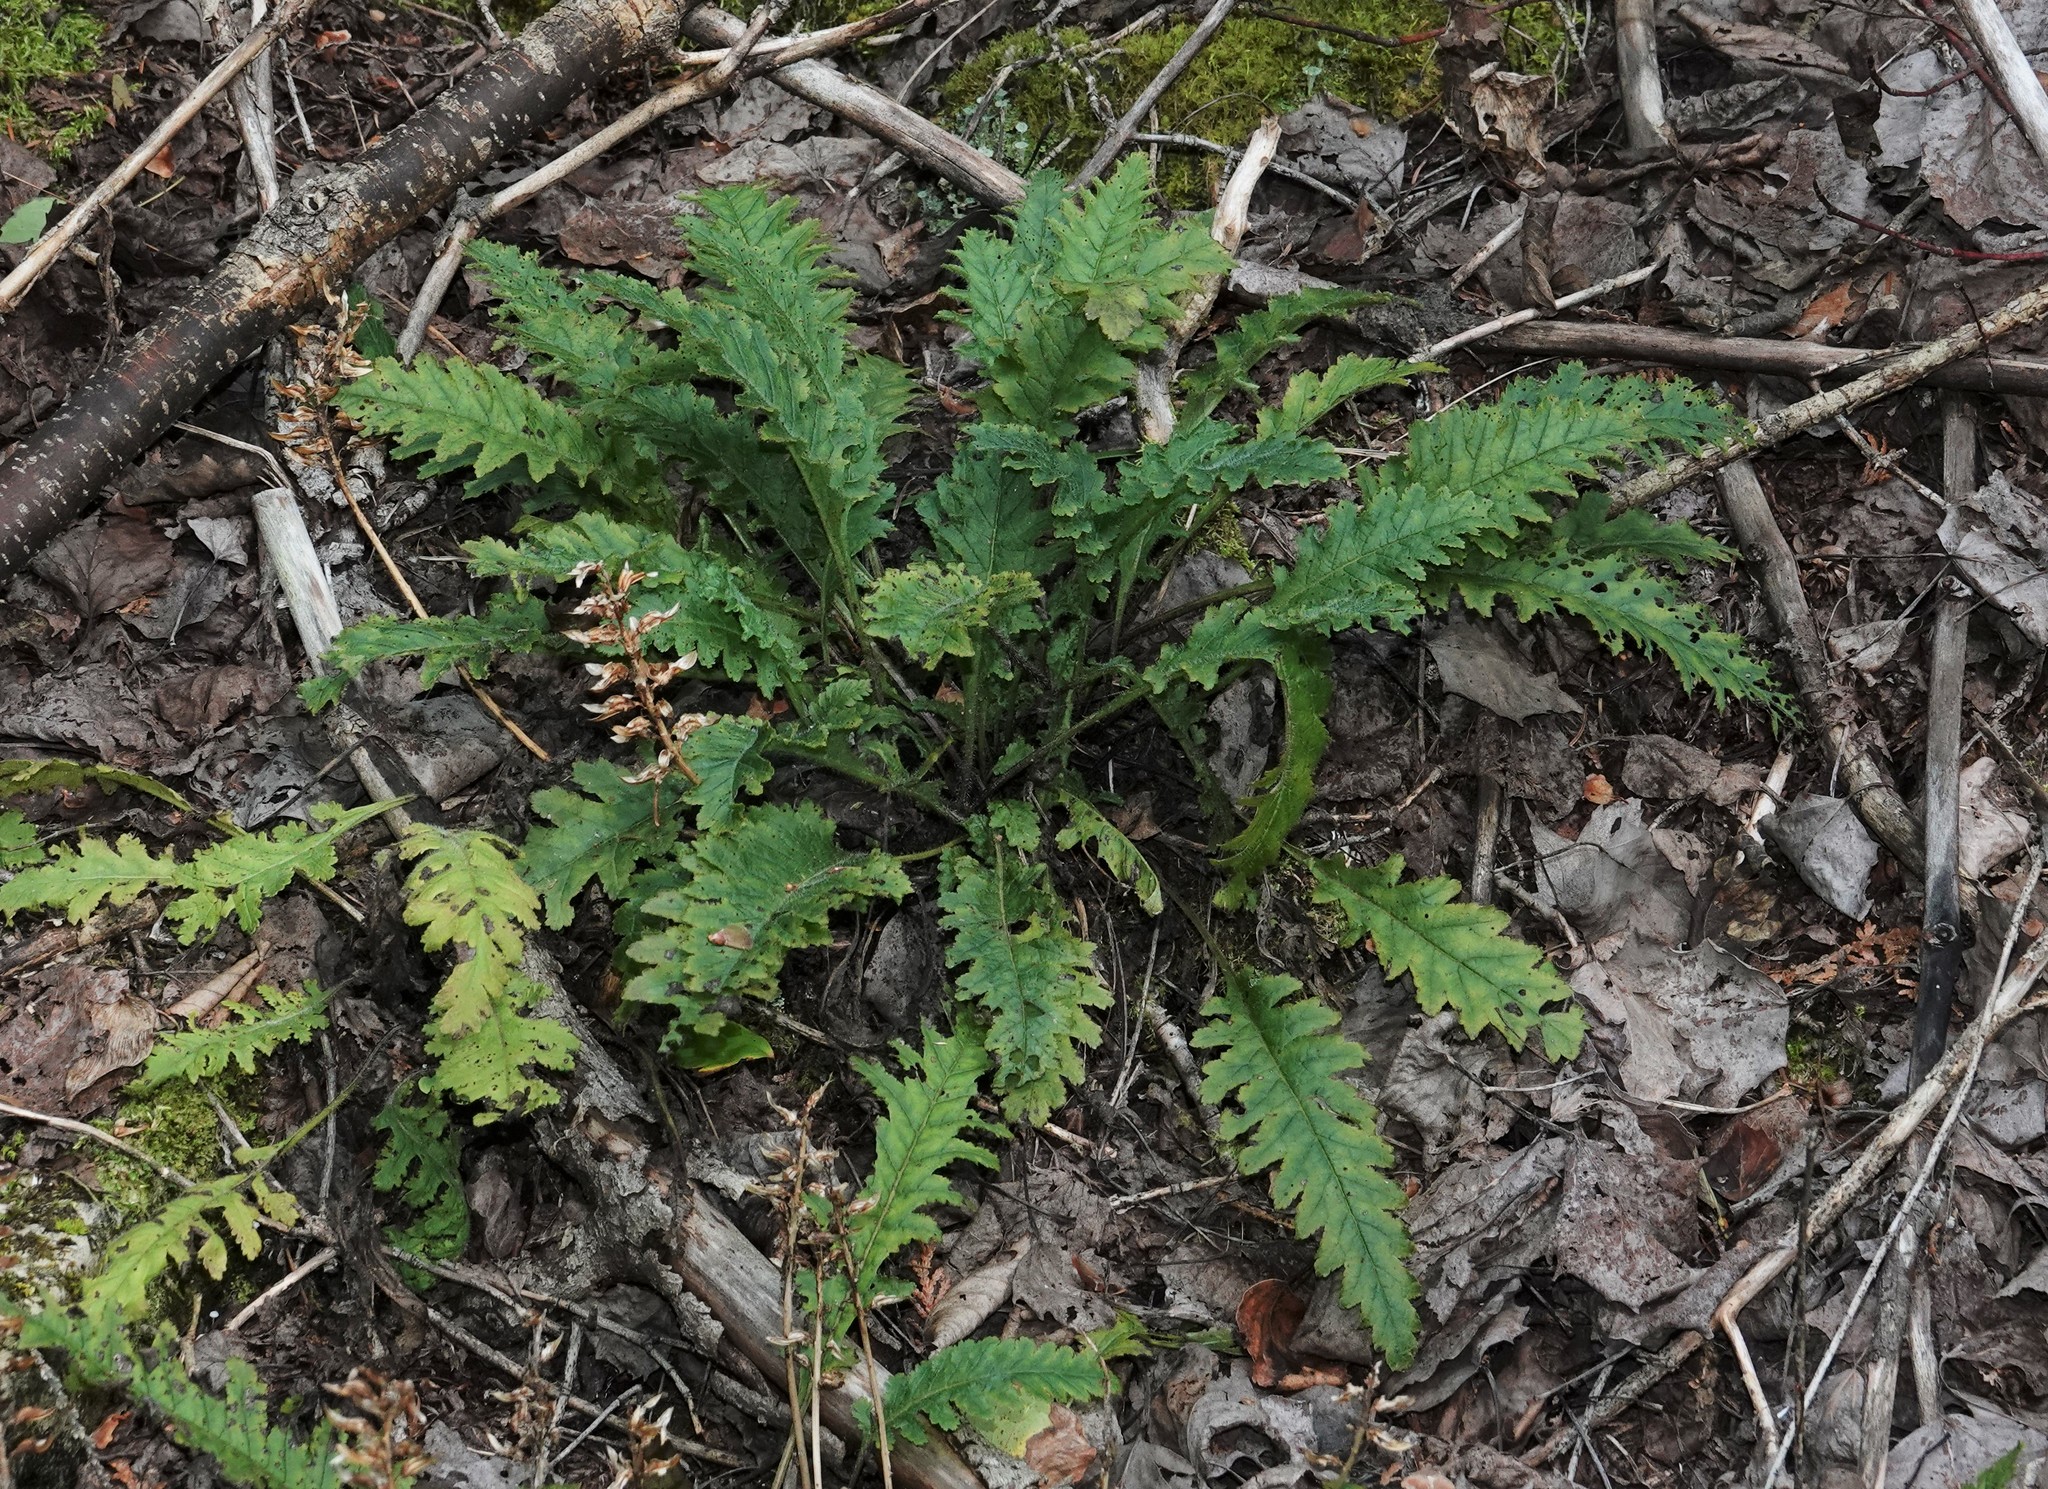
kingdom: Plantae
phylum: Tracheophyta
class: Magnoliopsida
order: Lamiales
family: Orobanchaceae
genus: Pedicularis
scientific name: Pedicularis canadensis
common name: Early lousewort
